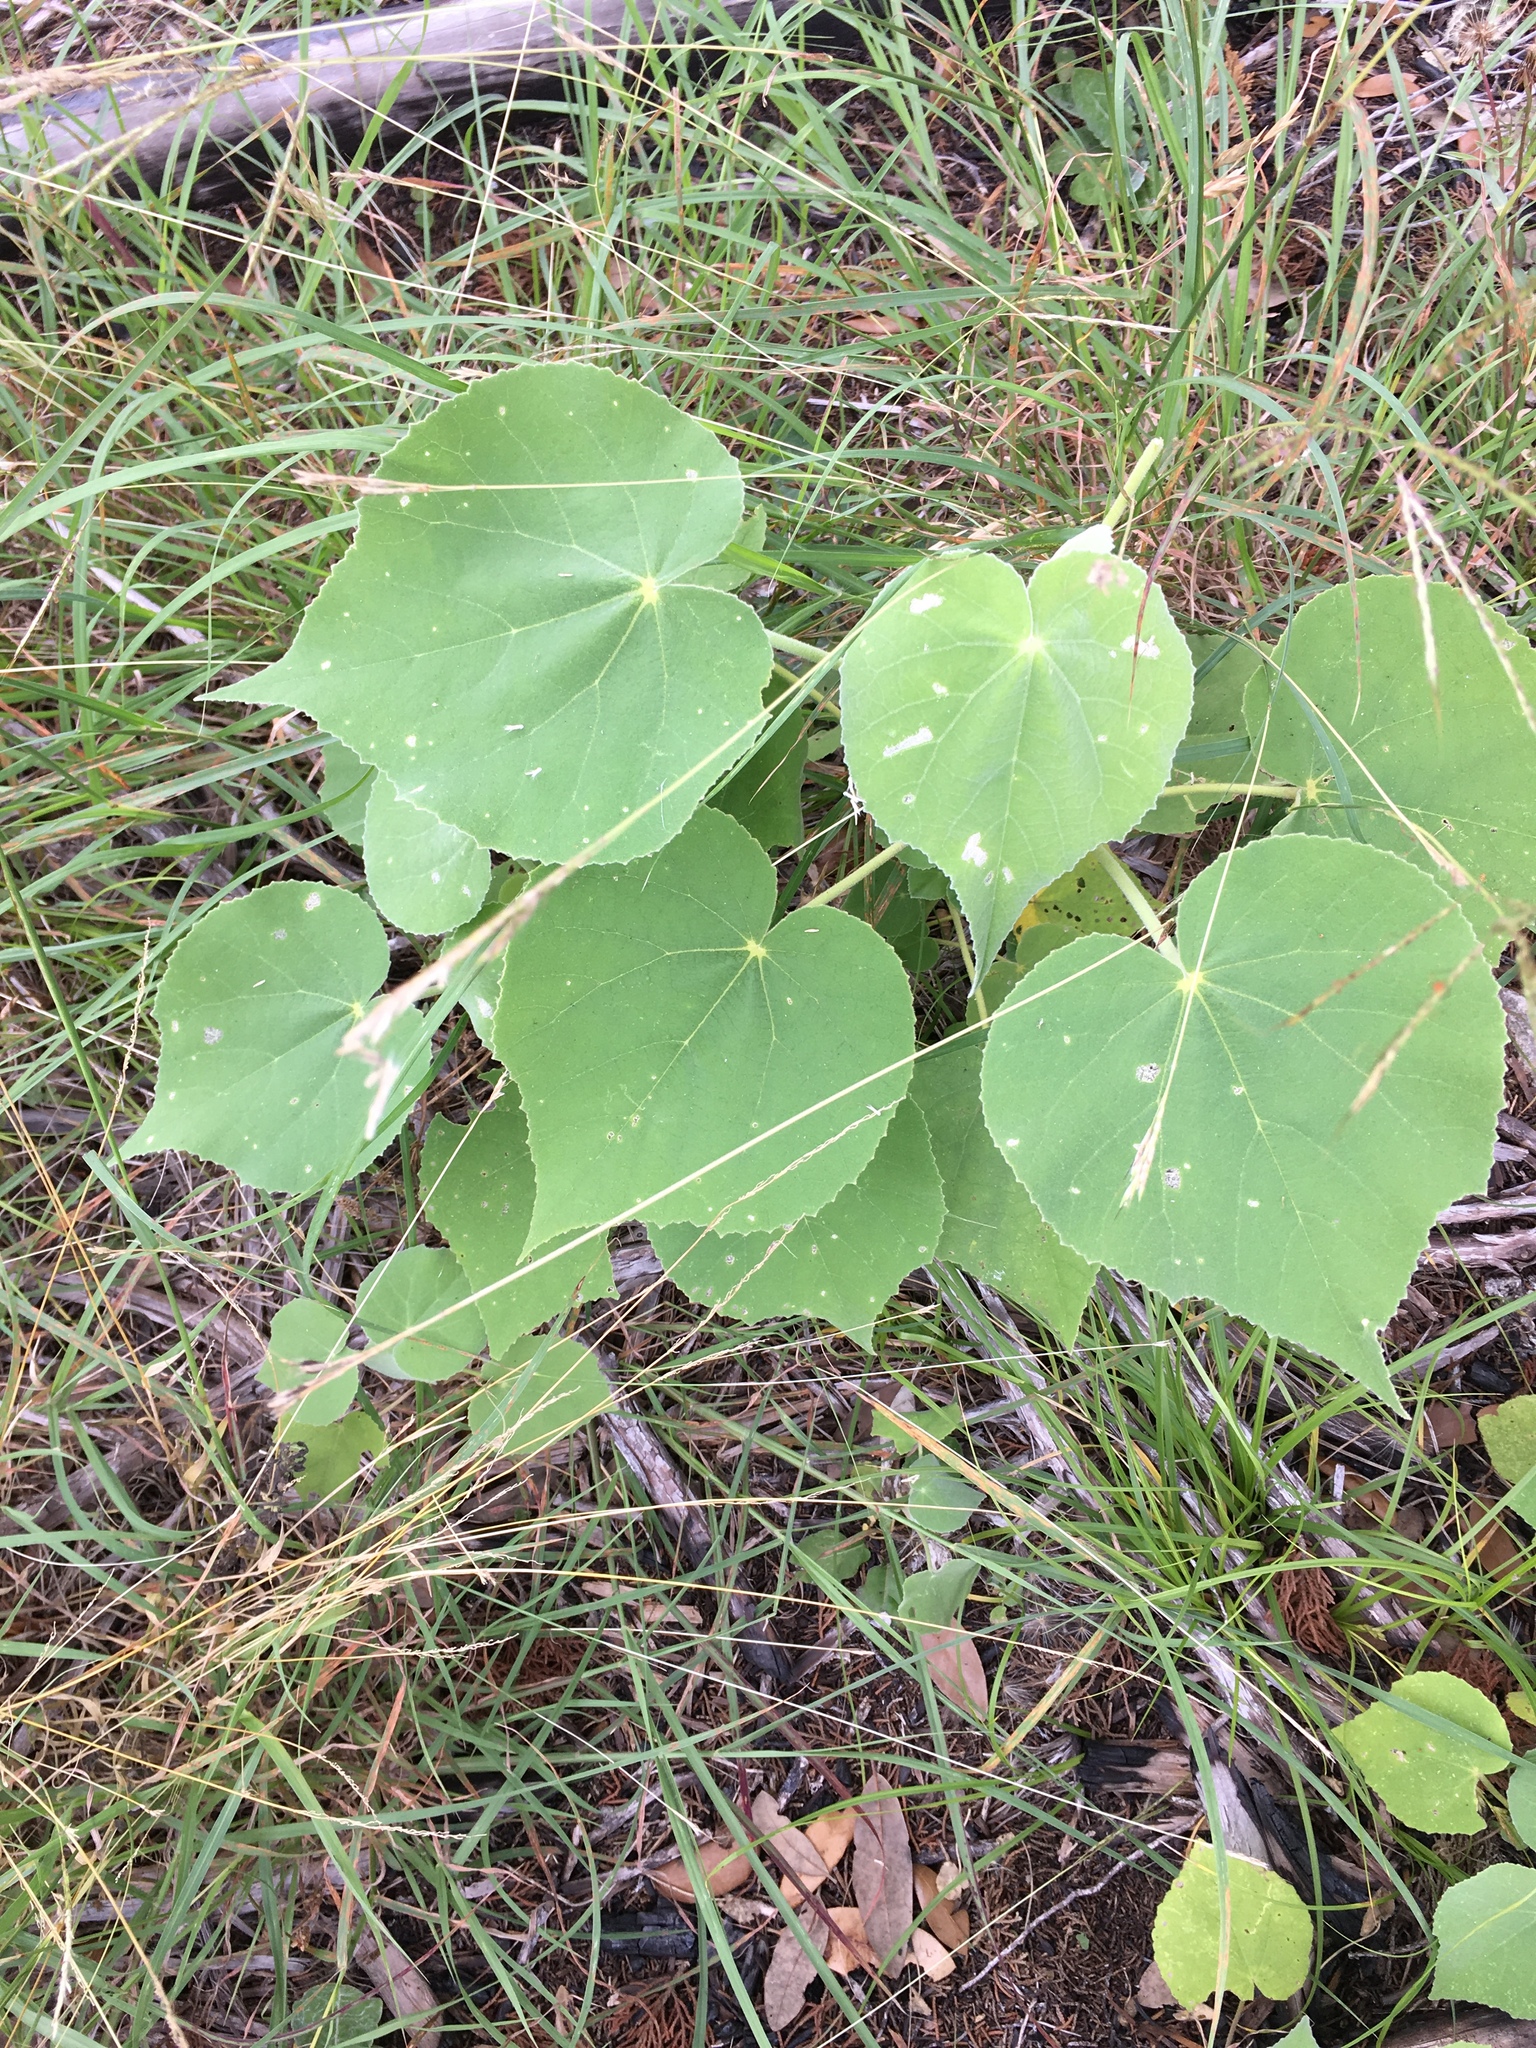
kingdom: Plantae
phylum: Tracheophyta
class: Magnoliopsida
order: Malvales
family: Malvaceae
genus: Allowissadula
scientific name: Allowissadula holosericea
